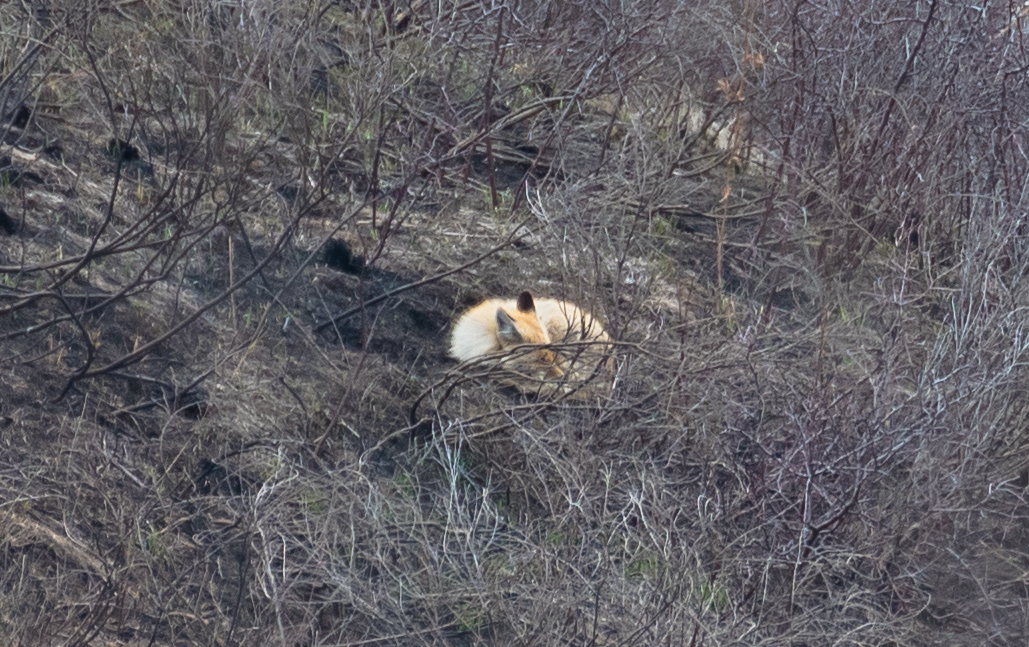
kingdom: Animalia
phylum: Chordata
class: Mammalia
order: Carnivora
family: Canidae
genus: Vulpes
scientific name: Vulpes vulpes
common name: Red fox
